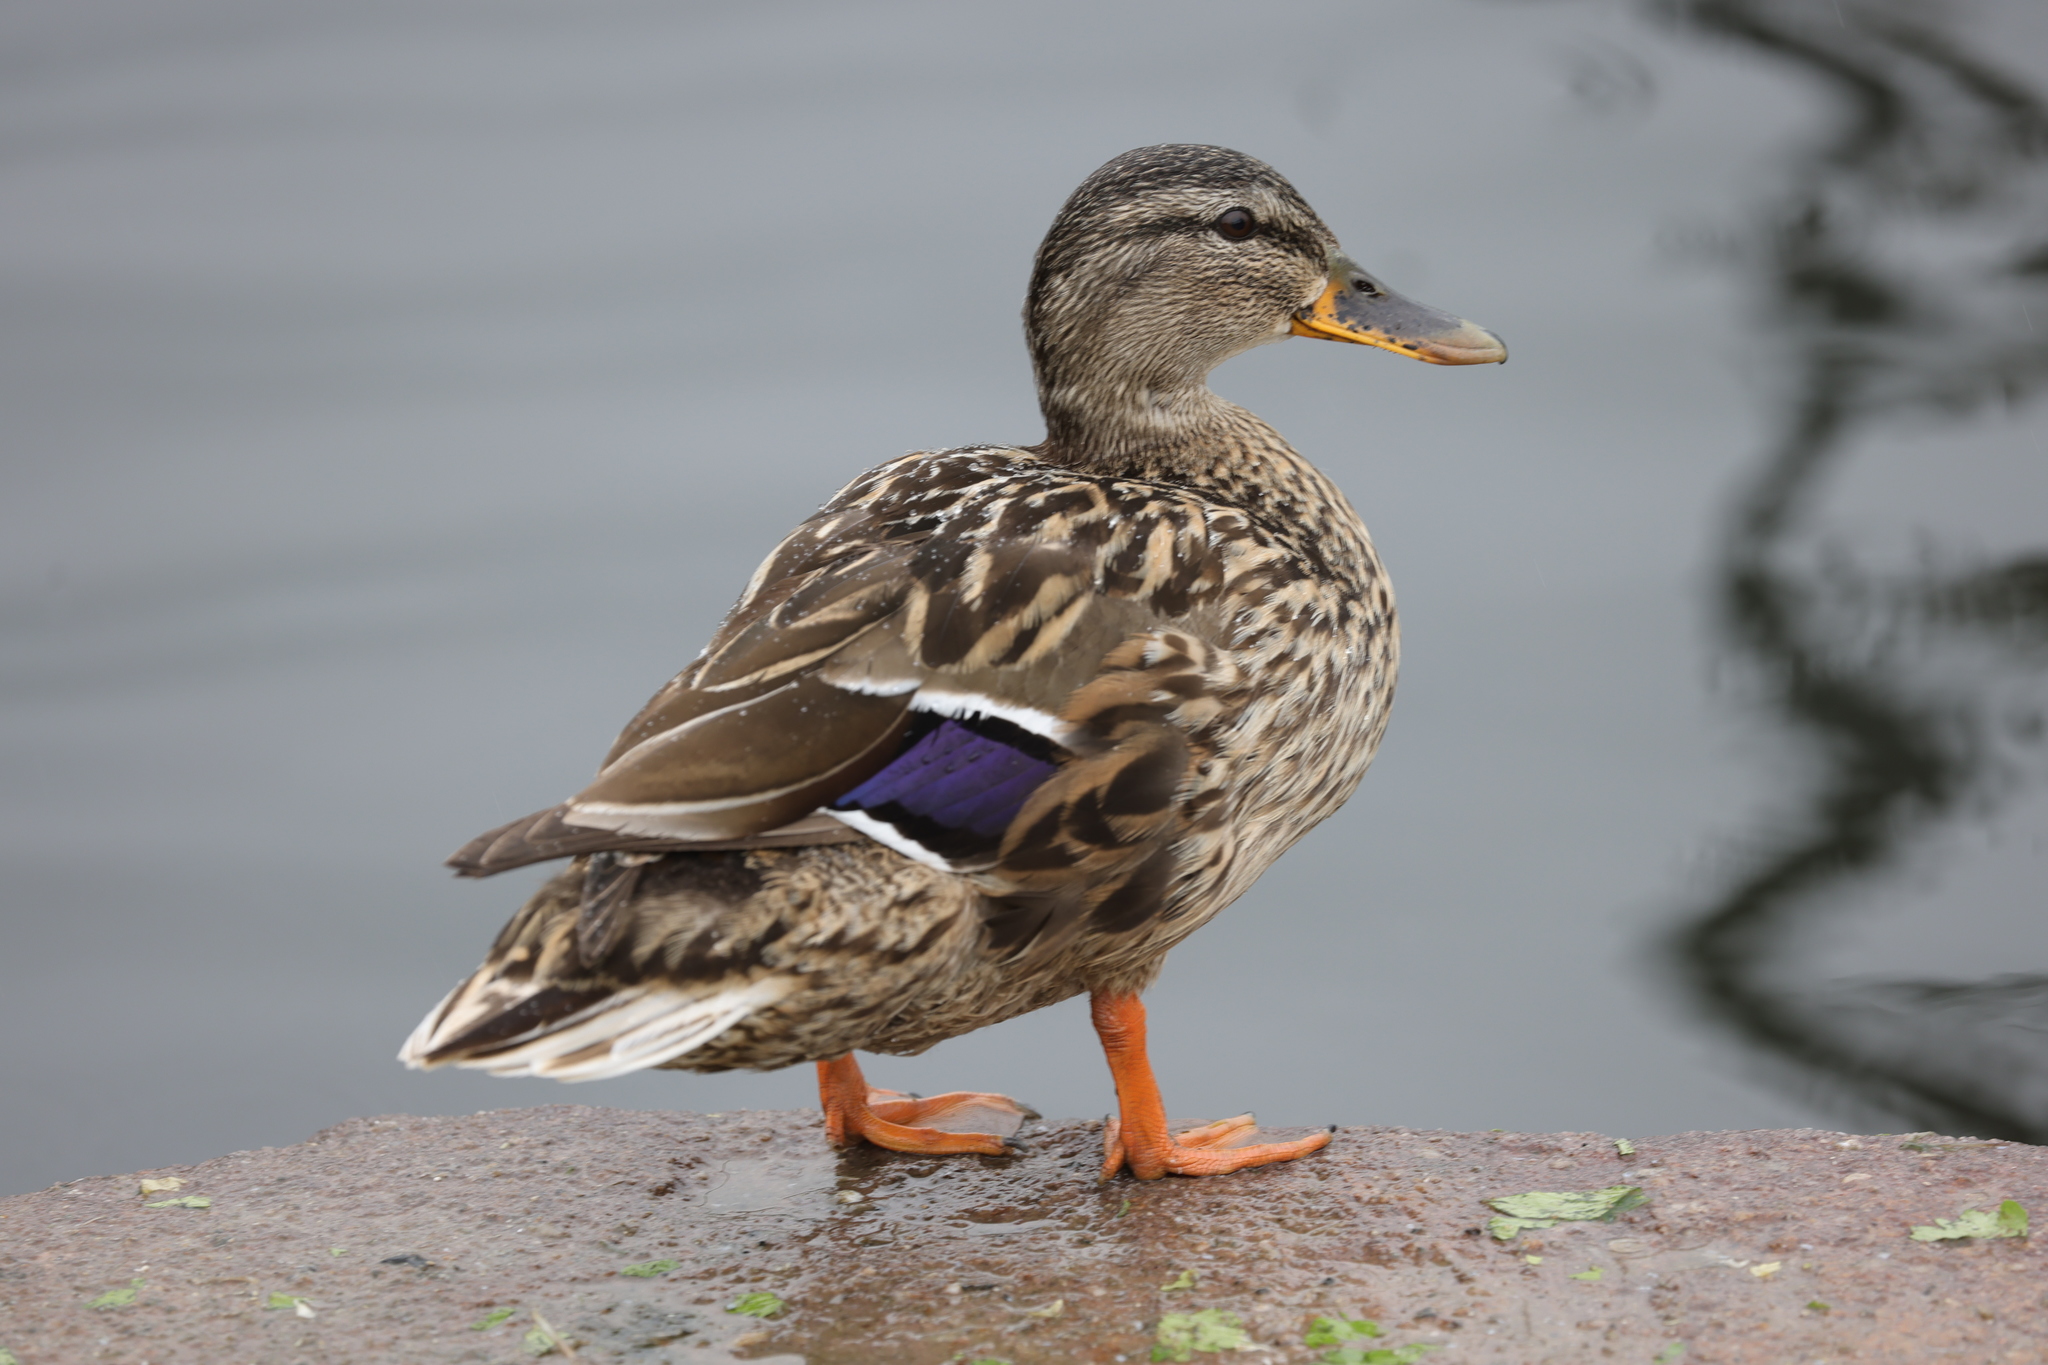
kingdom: Animalia
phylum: Chordata
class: Aves
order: Anseriformes
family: Anatidae
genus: Anas
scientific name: Anas platyrhynchos
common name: Mallard
